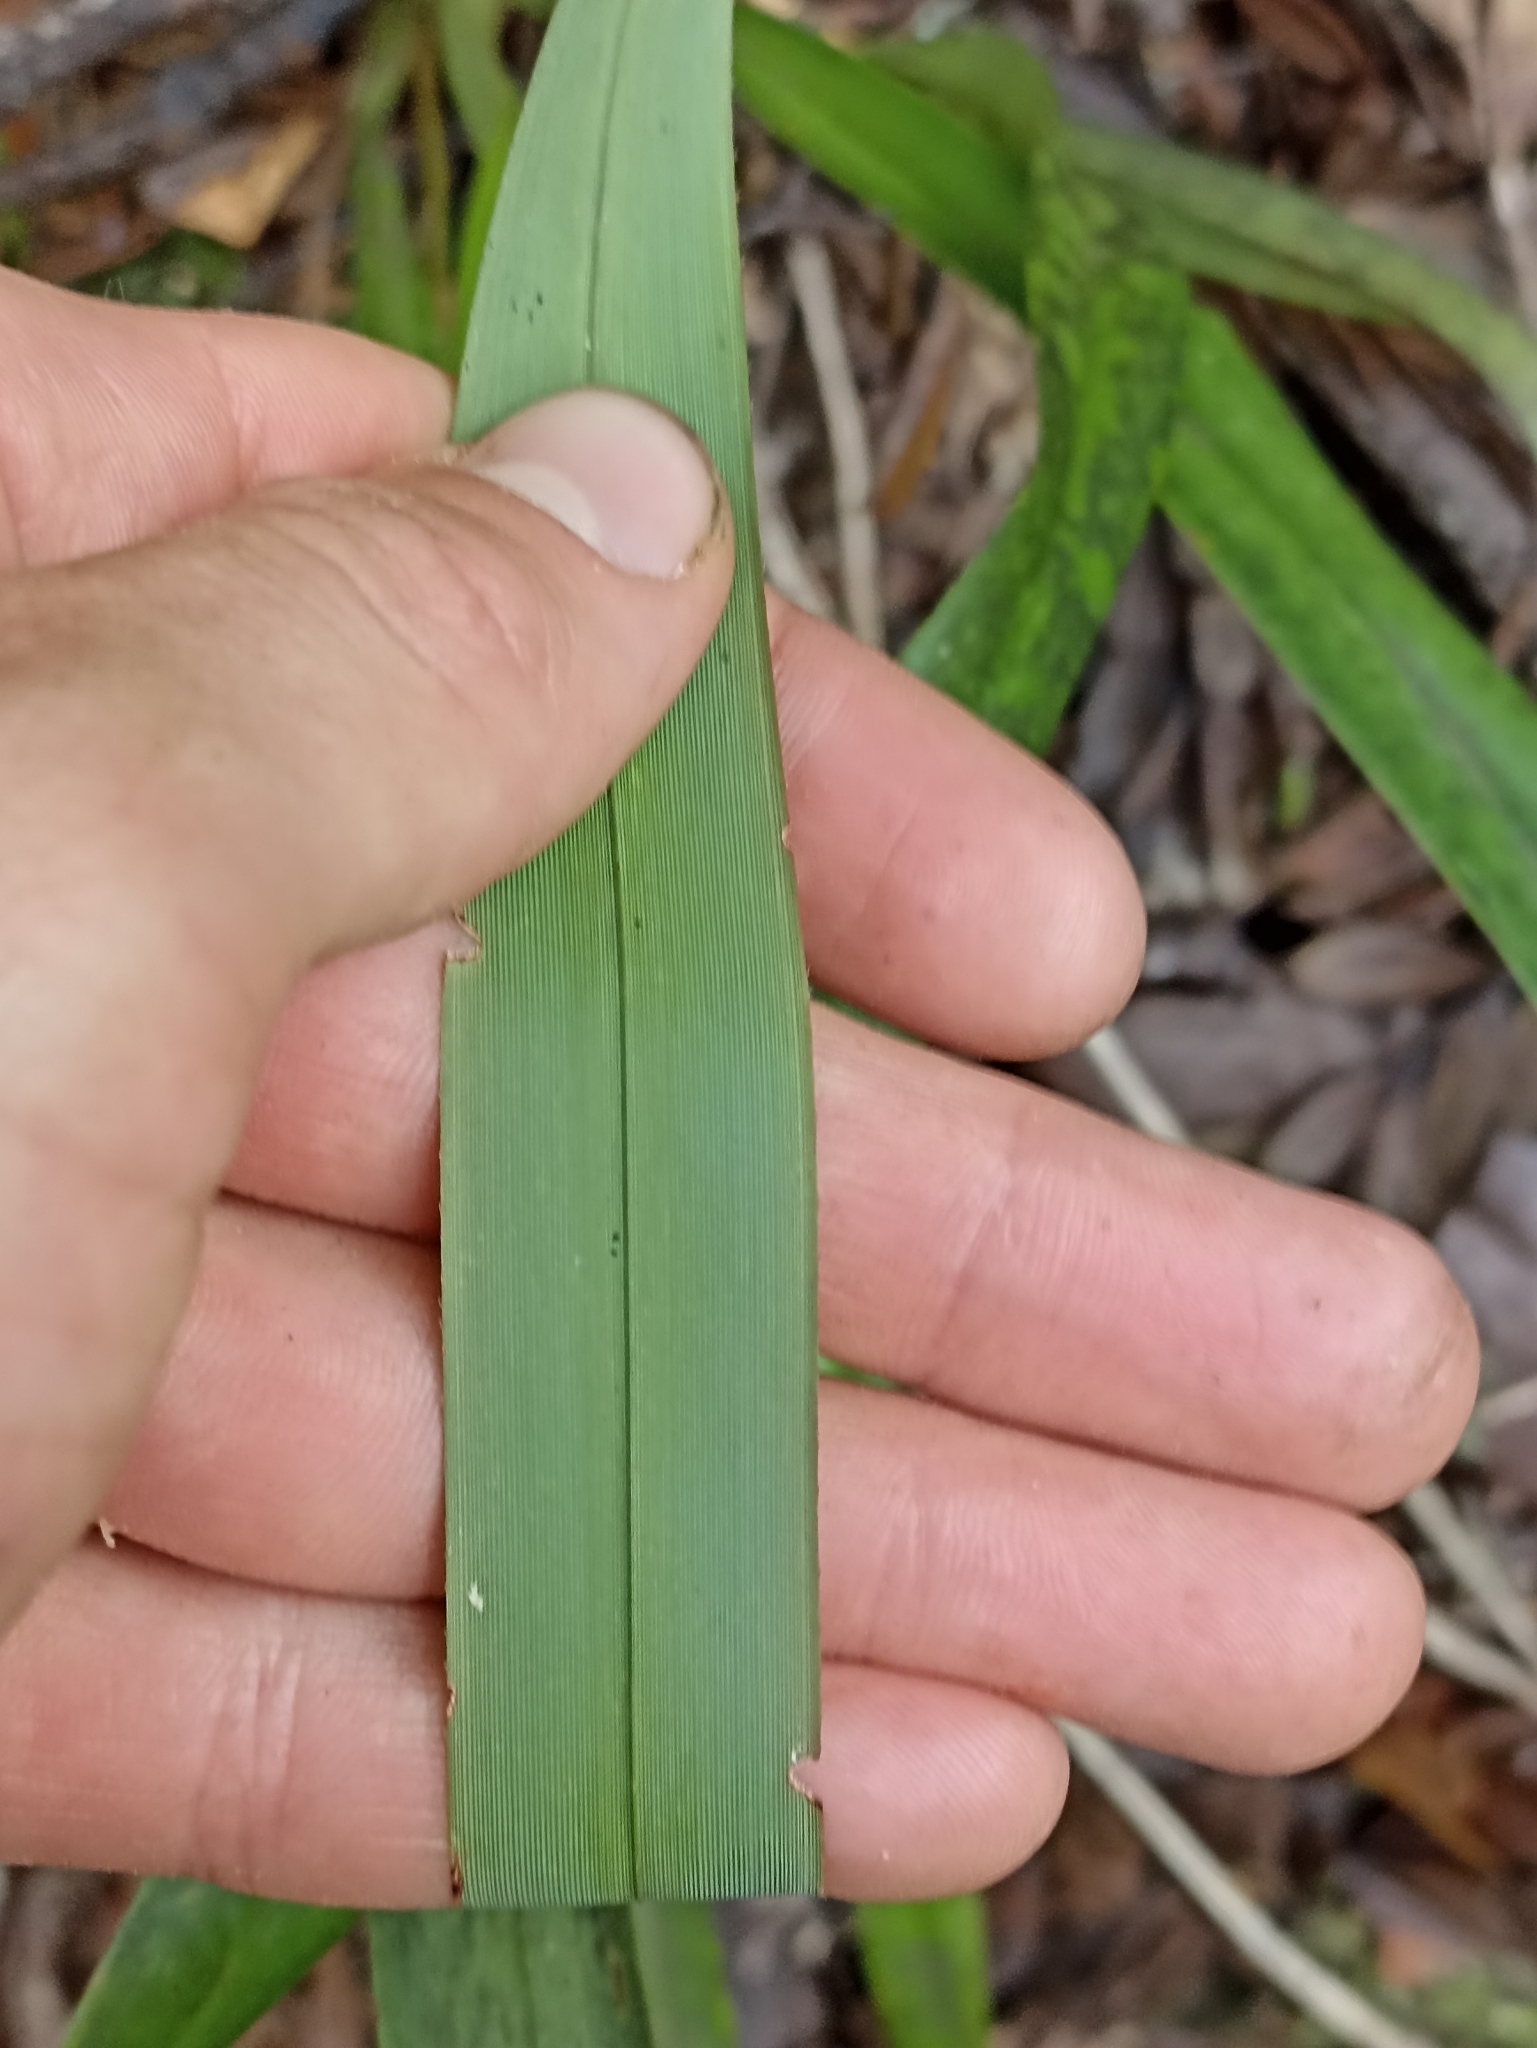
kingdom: Plantae
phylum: Tracheophyta
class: Liliopsida
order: Asparagales
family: Asphodelaceae
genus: Dianella
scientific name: Dianella nigra
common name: New zealand-blueberry
